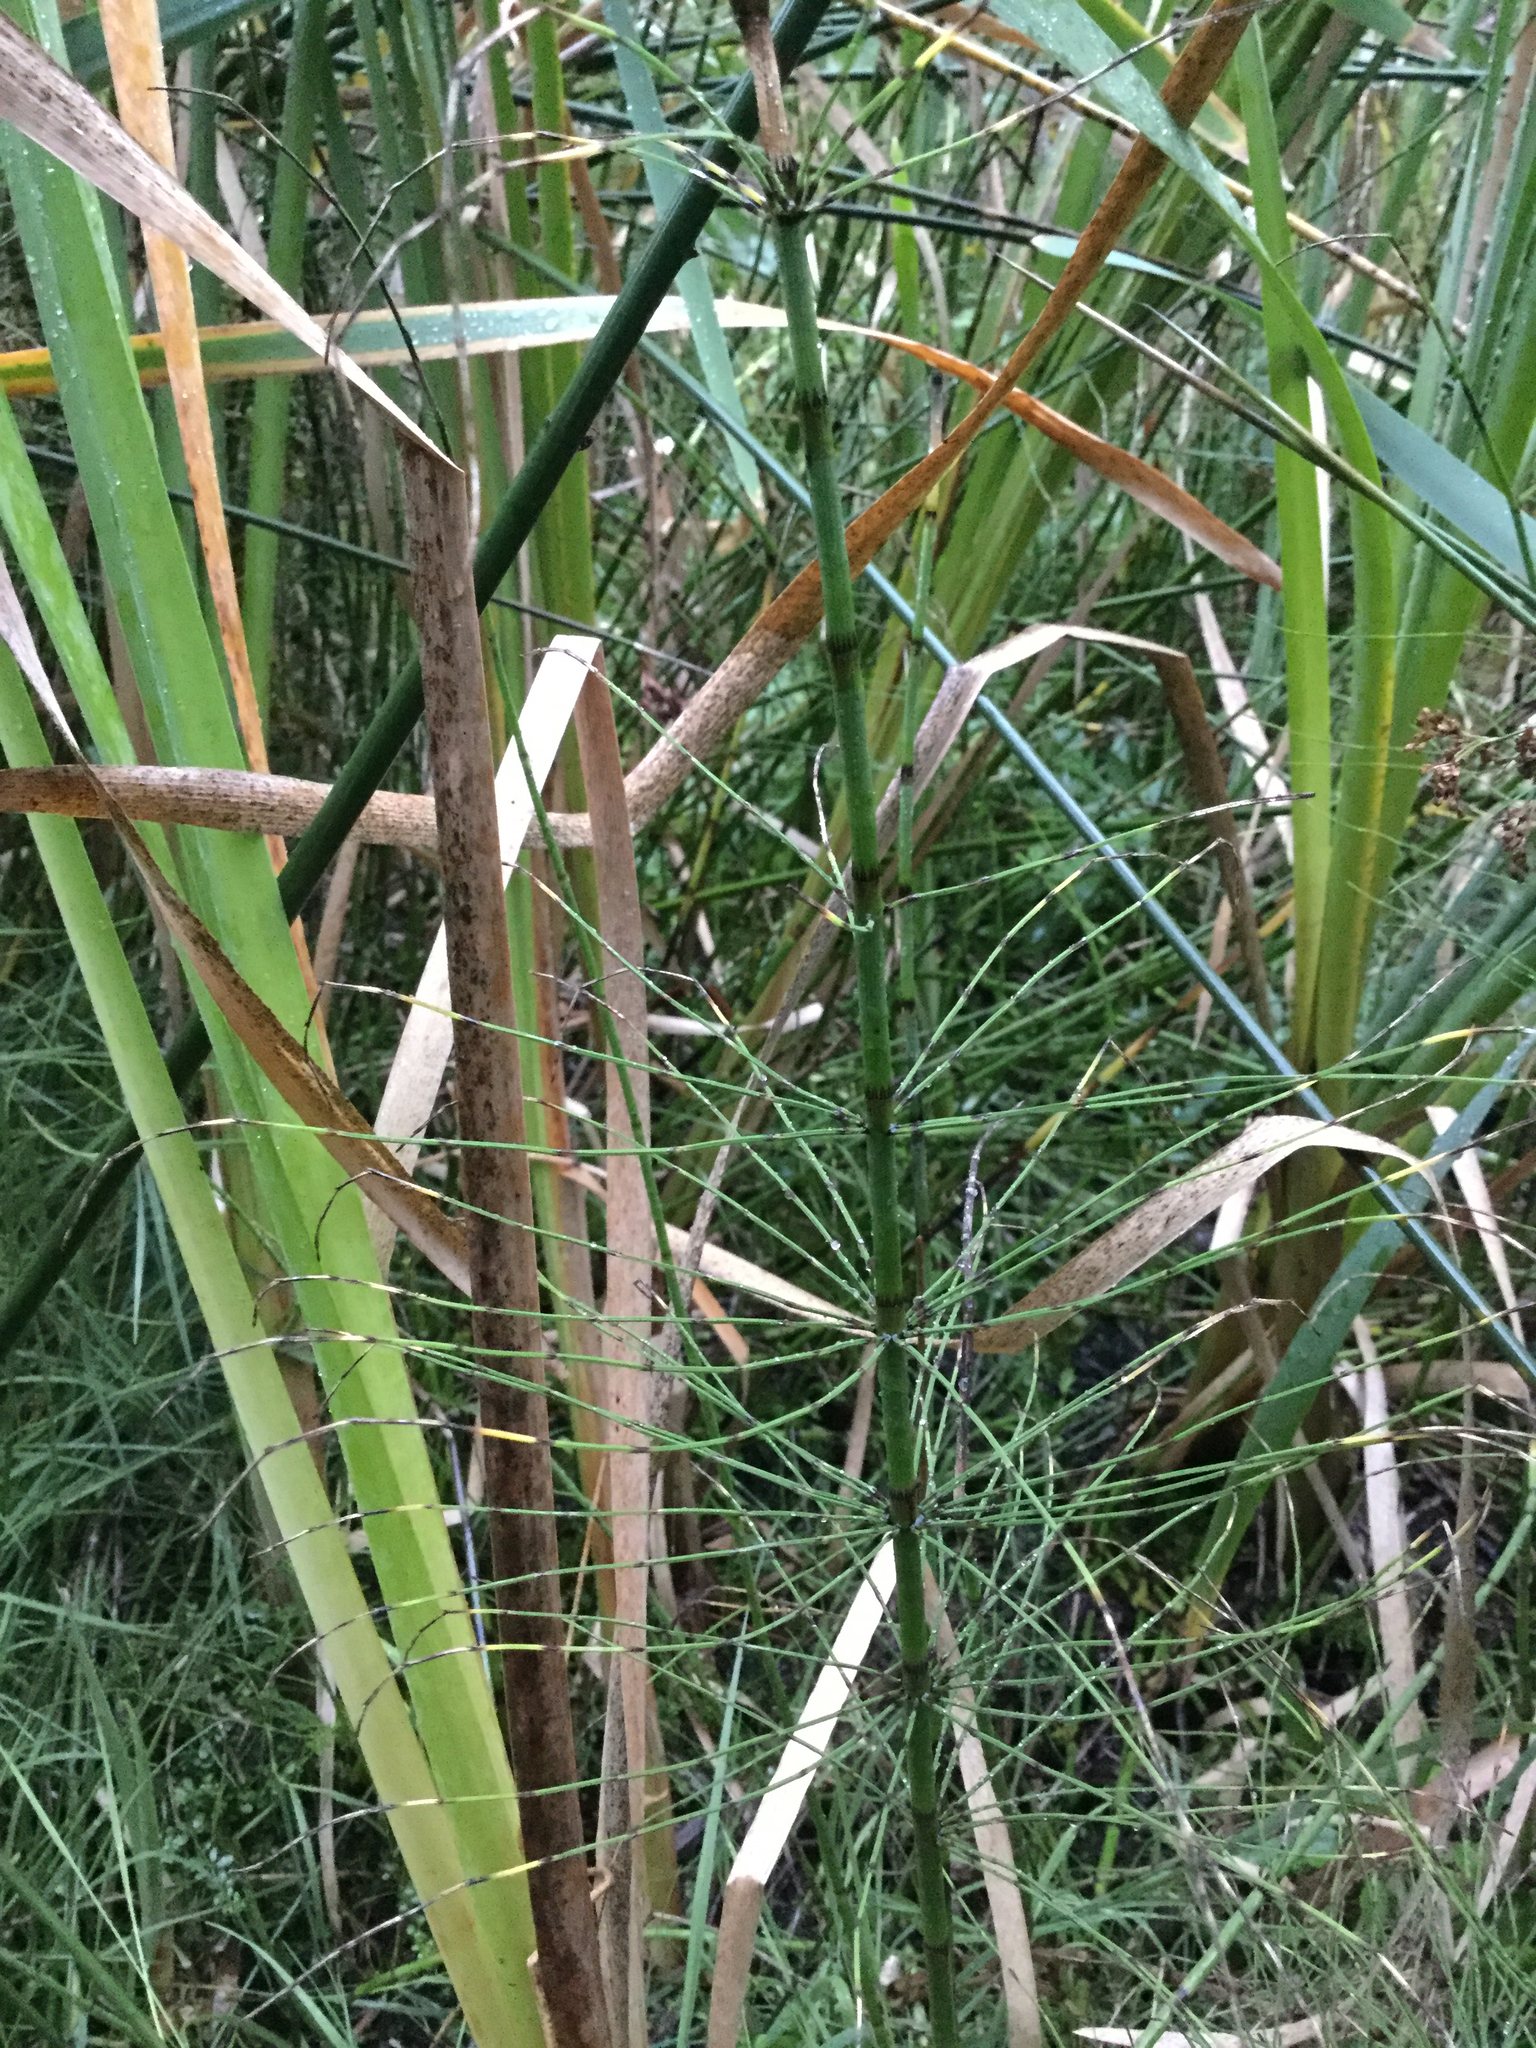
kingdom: Plantae
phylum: Tracheophyta
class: Polypodiopsida
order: Equisetales
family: Equisetaceae
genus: Equisetum
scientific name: Equisetum fluviatile
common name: Water horsetail
